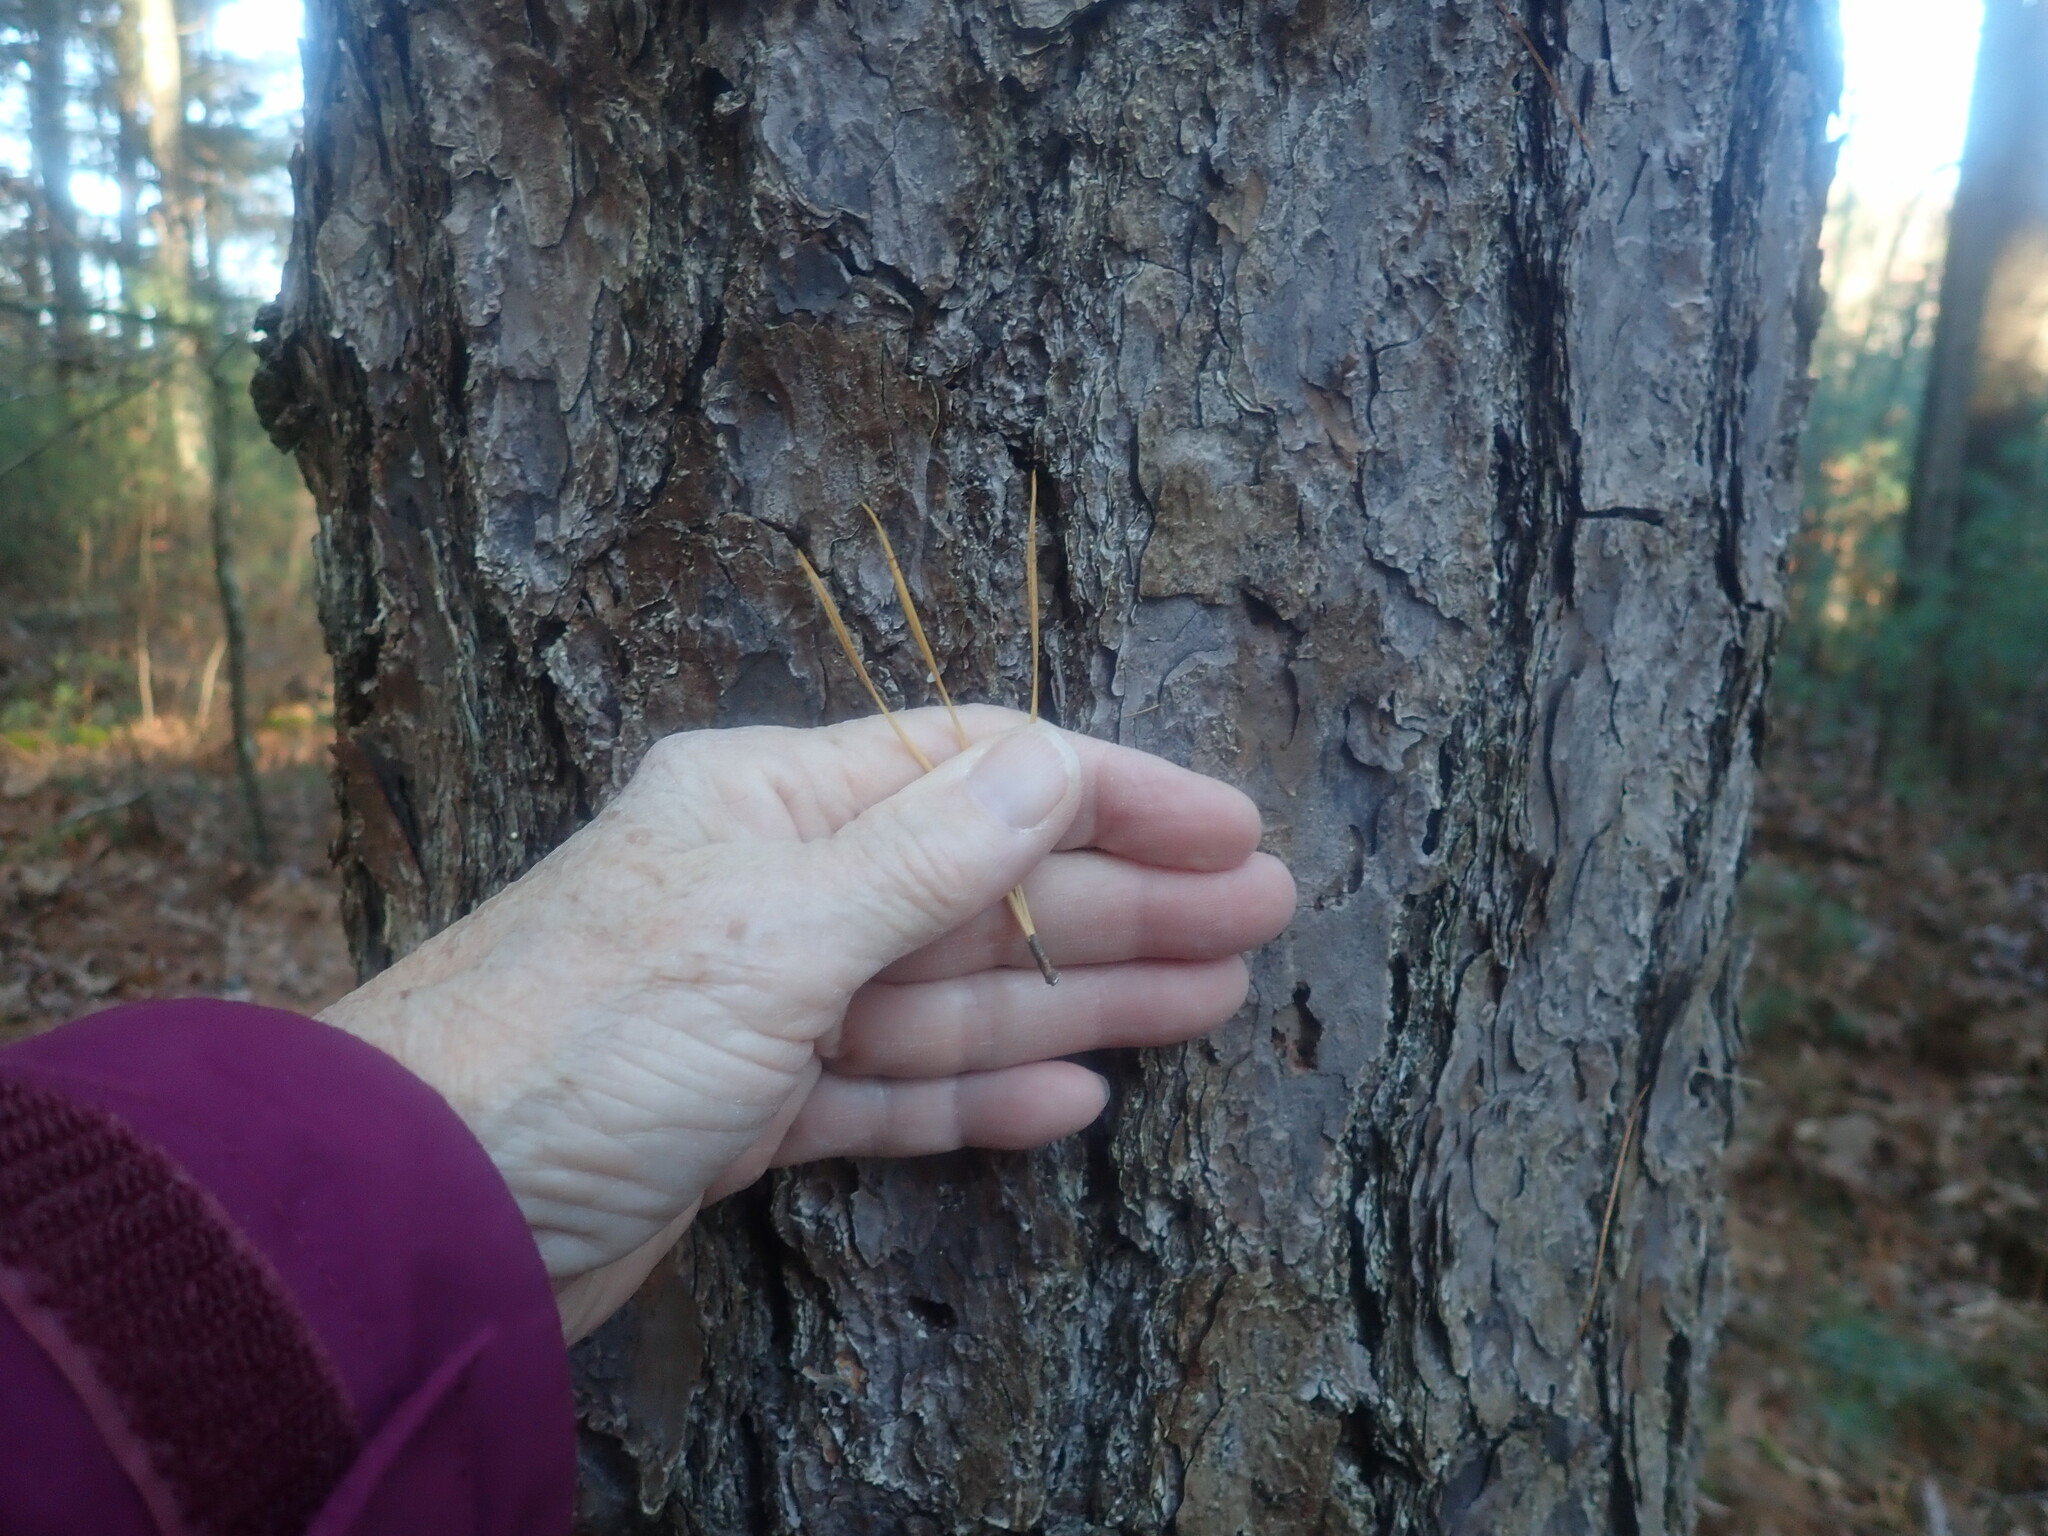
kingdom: Plantae
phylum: Tracheophyta
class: Pinopsida
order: Pinales
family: Pinaceae
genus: Pinus
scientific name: Pinus rigida
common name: Pitch pine
